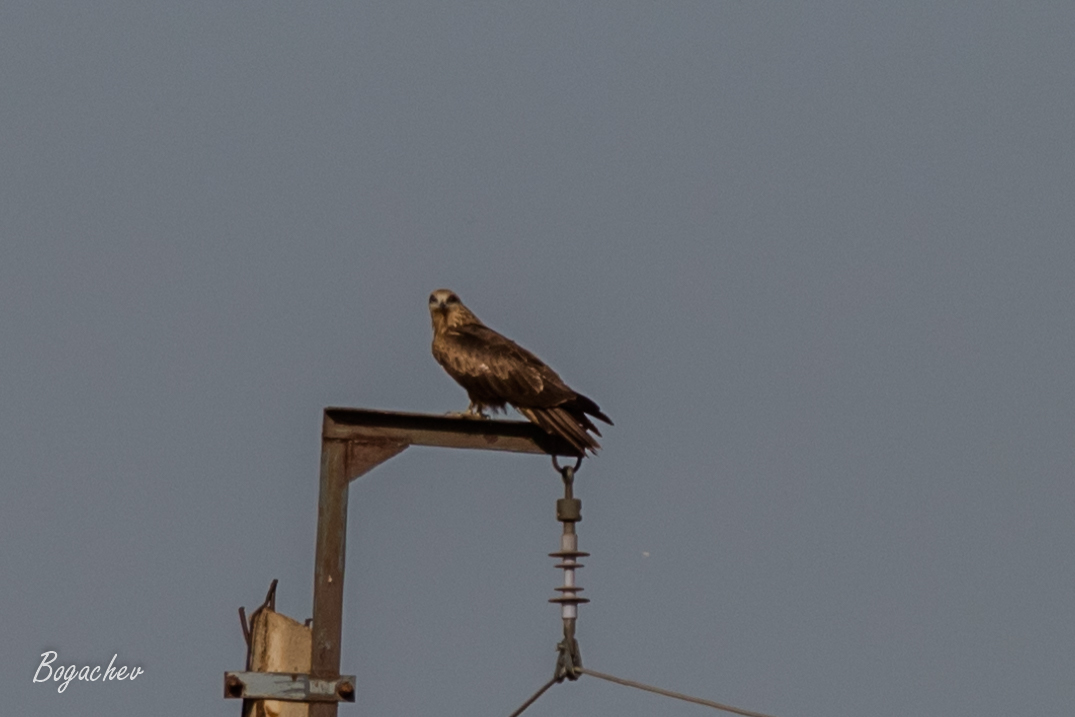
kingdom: Animalia
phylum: Chordata
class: Aves
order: Accipitriformes
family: Accipitridae
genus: Milvus
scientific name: Milvus migrans
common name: Black kite
